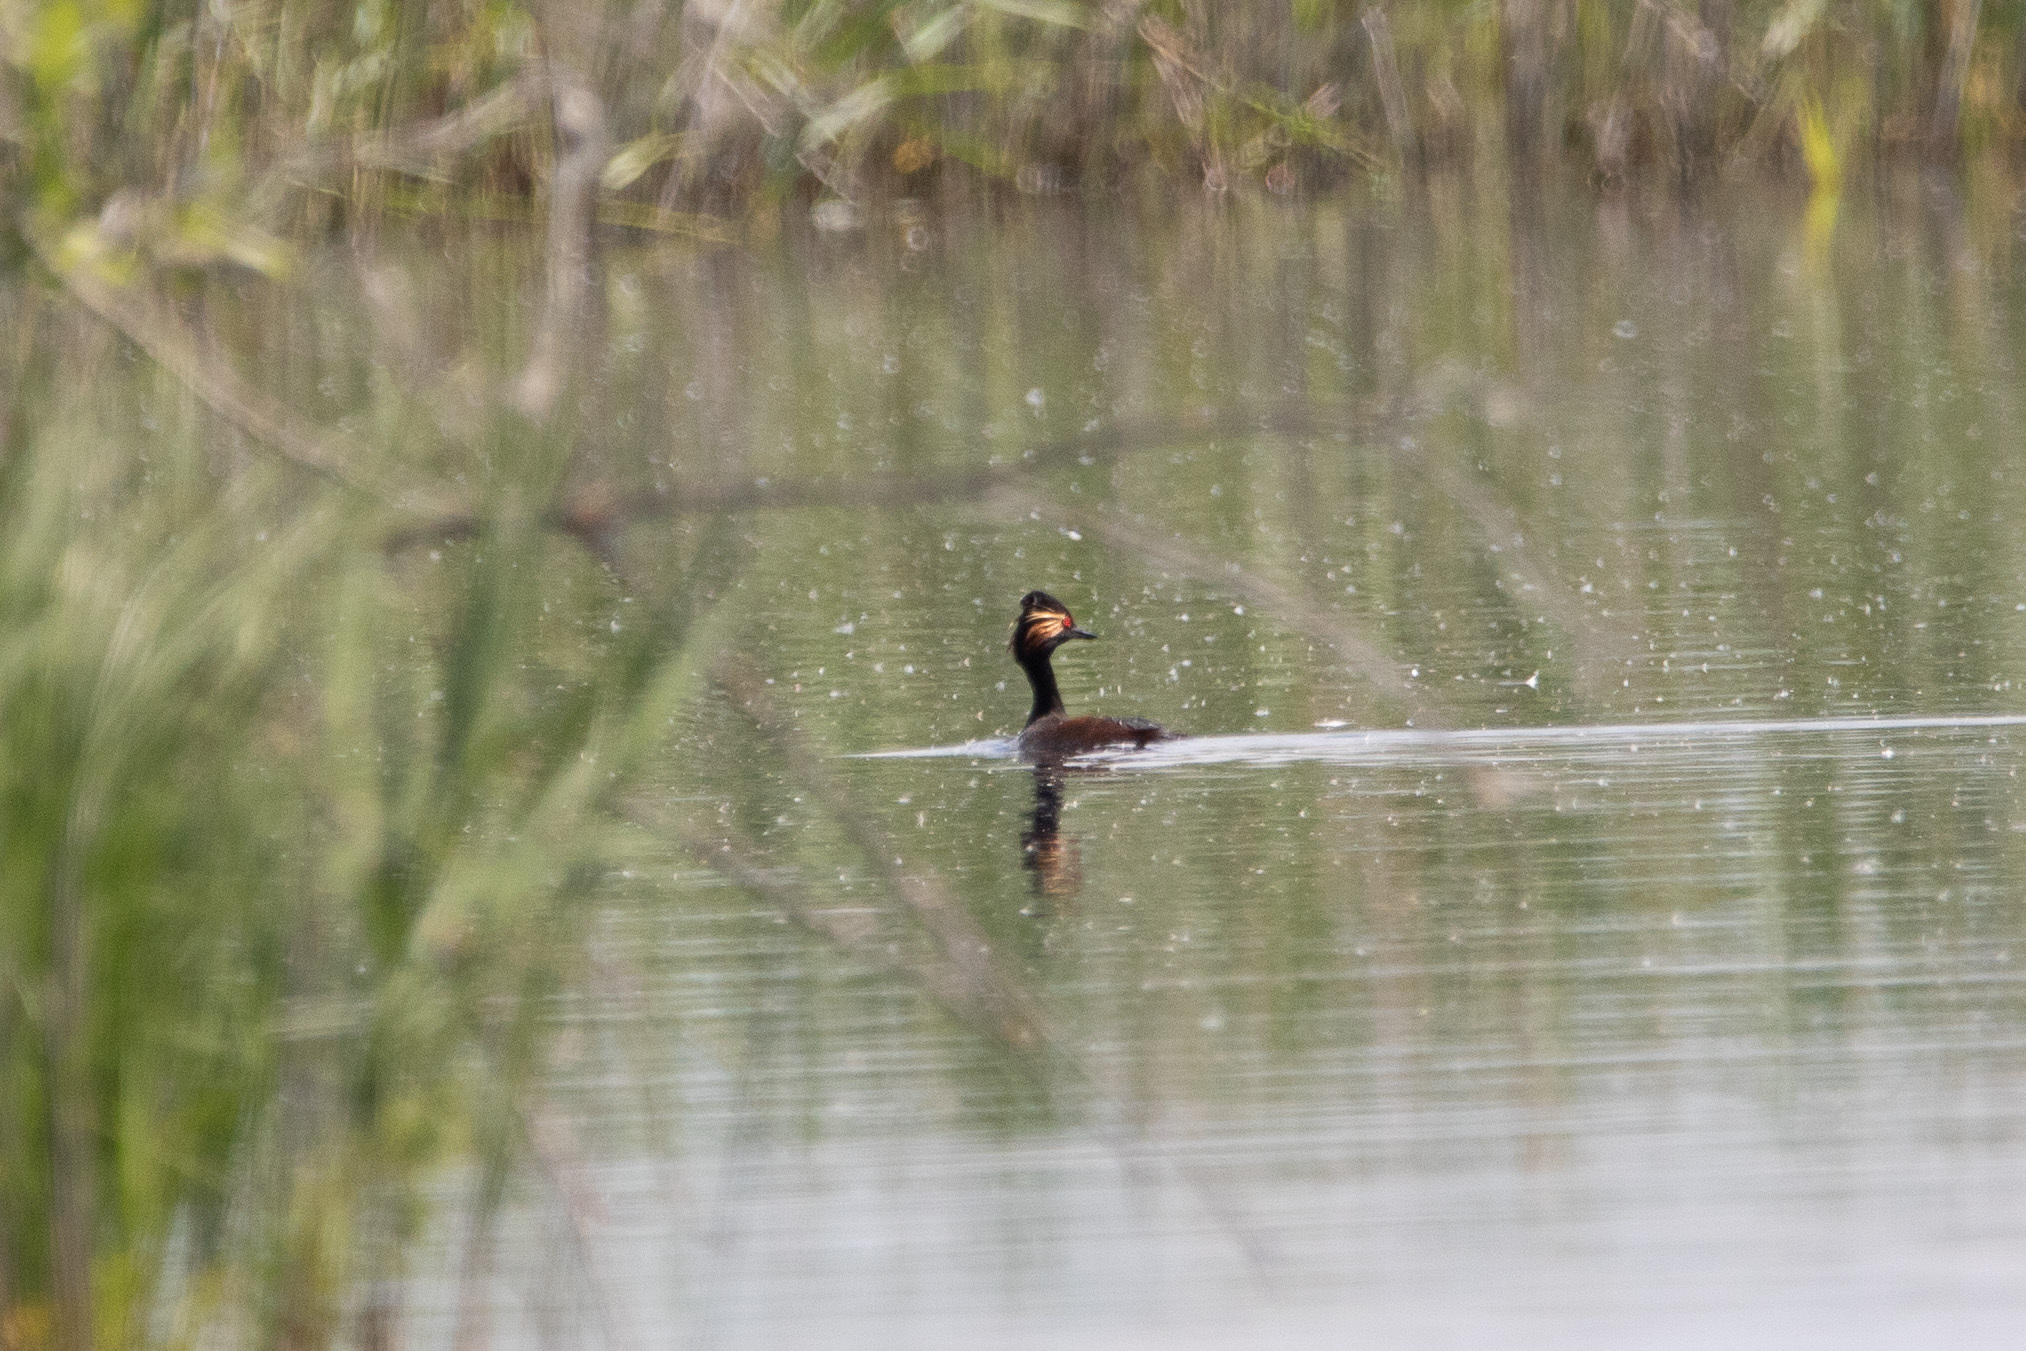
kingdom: Animalia
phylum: Chordata
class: Aves
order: Podicipediformes
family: Podicipedidae
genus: Podiceps
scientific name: Podiceps nigricollis
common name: Black-necked grebe
